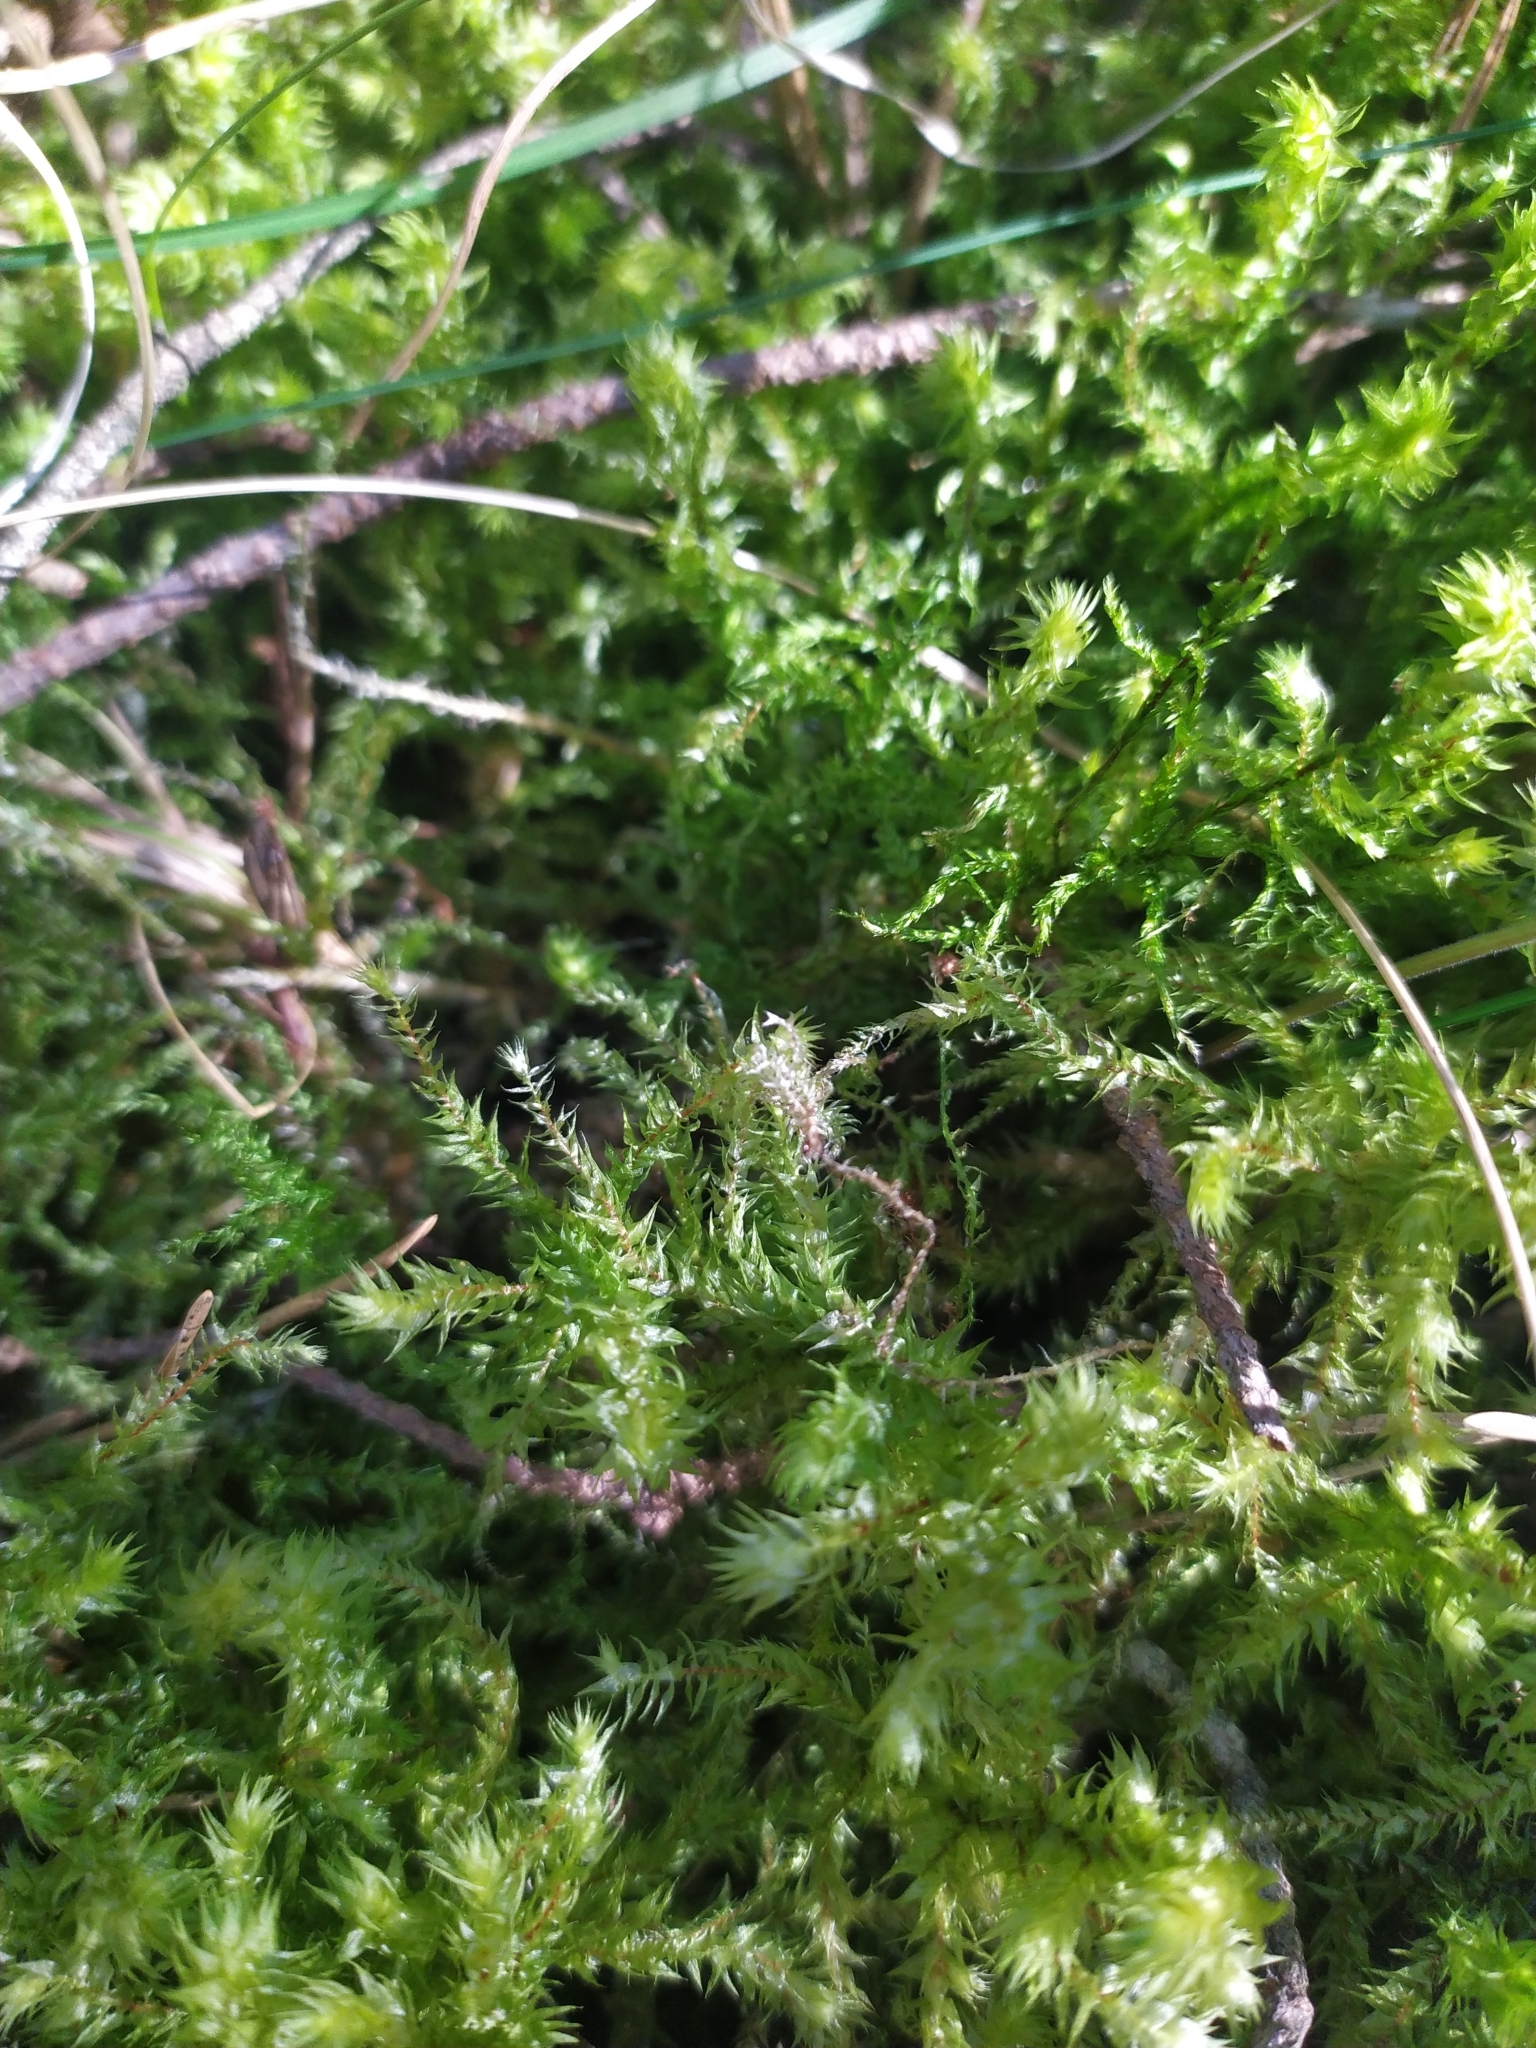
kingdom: Plantae
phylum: Bryophyta
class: Bryopsida
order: Hypnales
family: Hylocomiaceae
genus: Hylocomiadelphus
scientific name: Hylocomiadelphus triquetrus
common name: Rough goose neck moss
